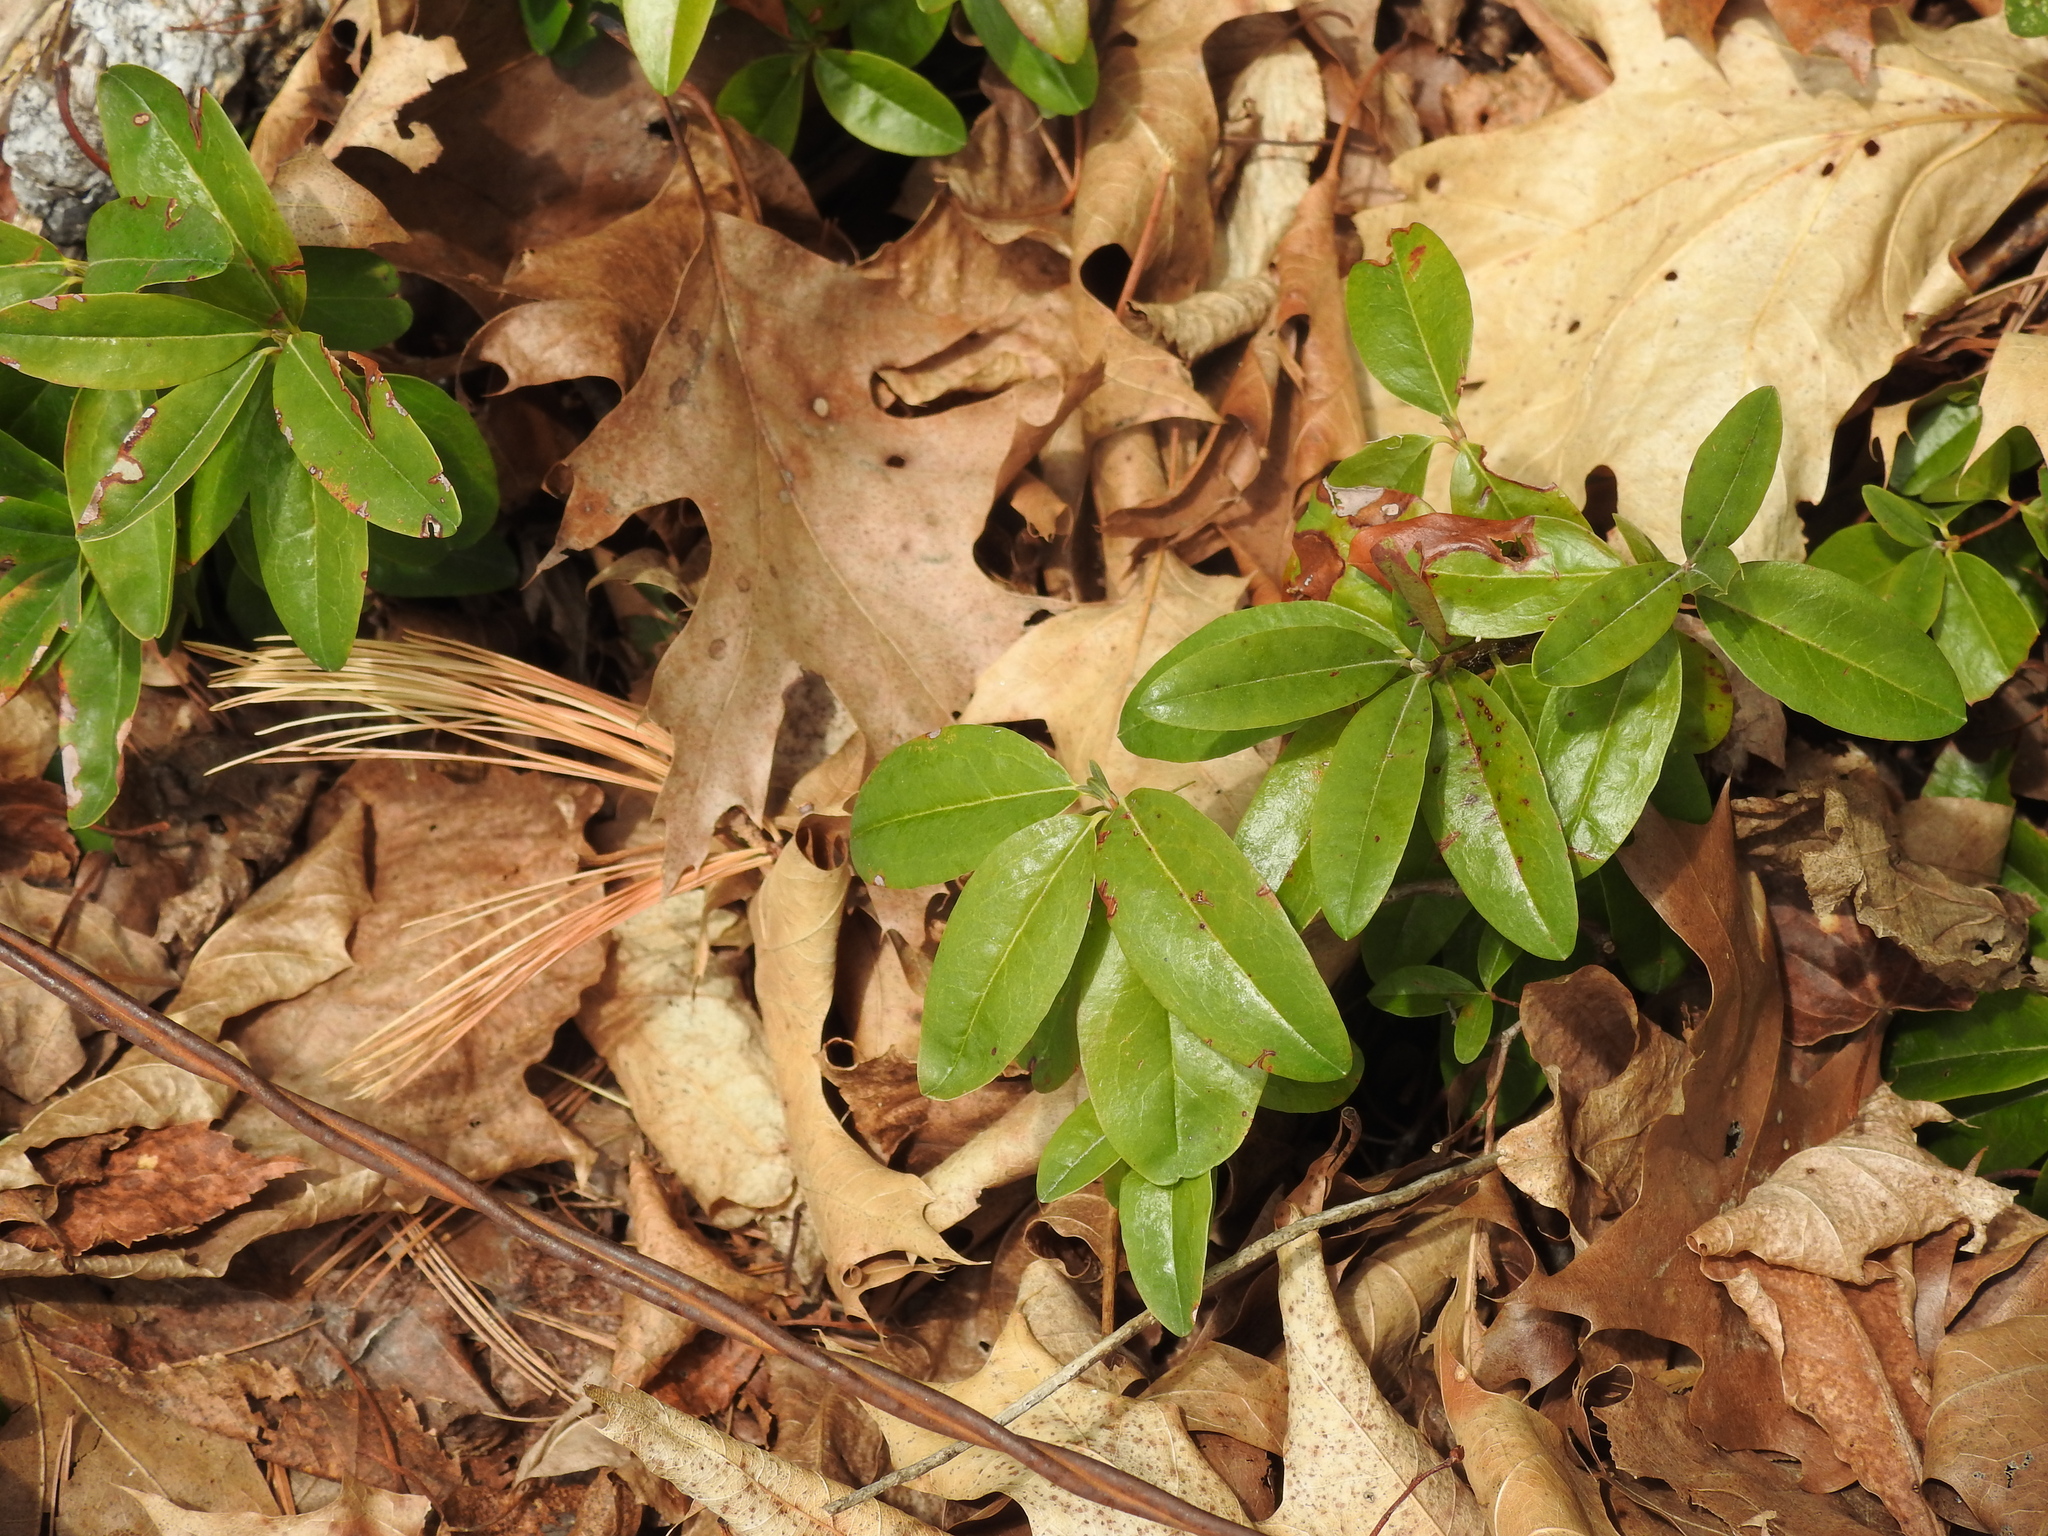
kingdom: Plantae
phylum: Tracheophyta
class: Magnoliopsida
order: Ericales
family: Ericaceae
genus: Kalmia
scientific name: Kalmia angustifolia
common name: Sheep-laurel
